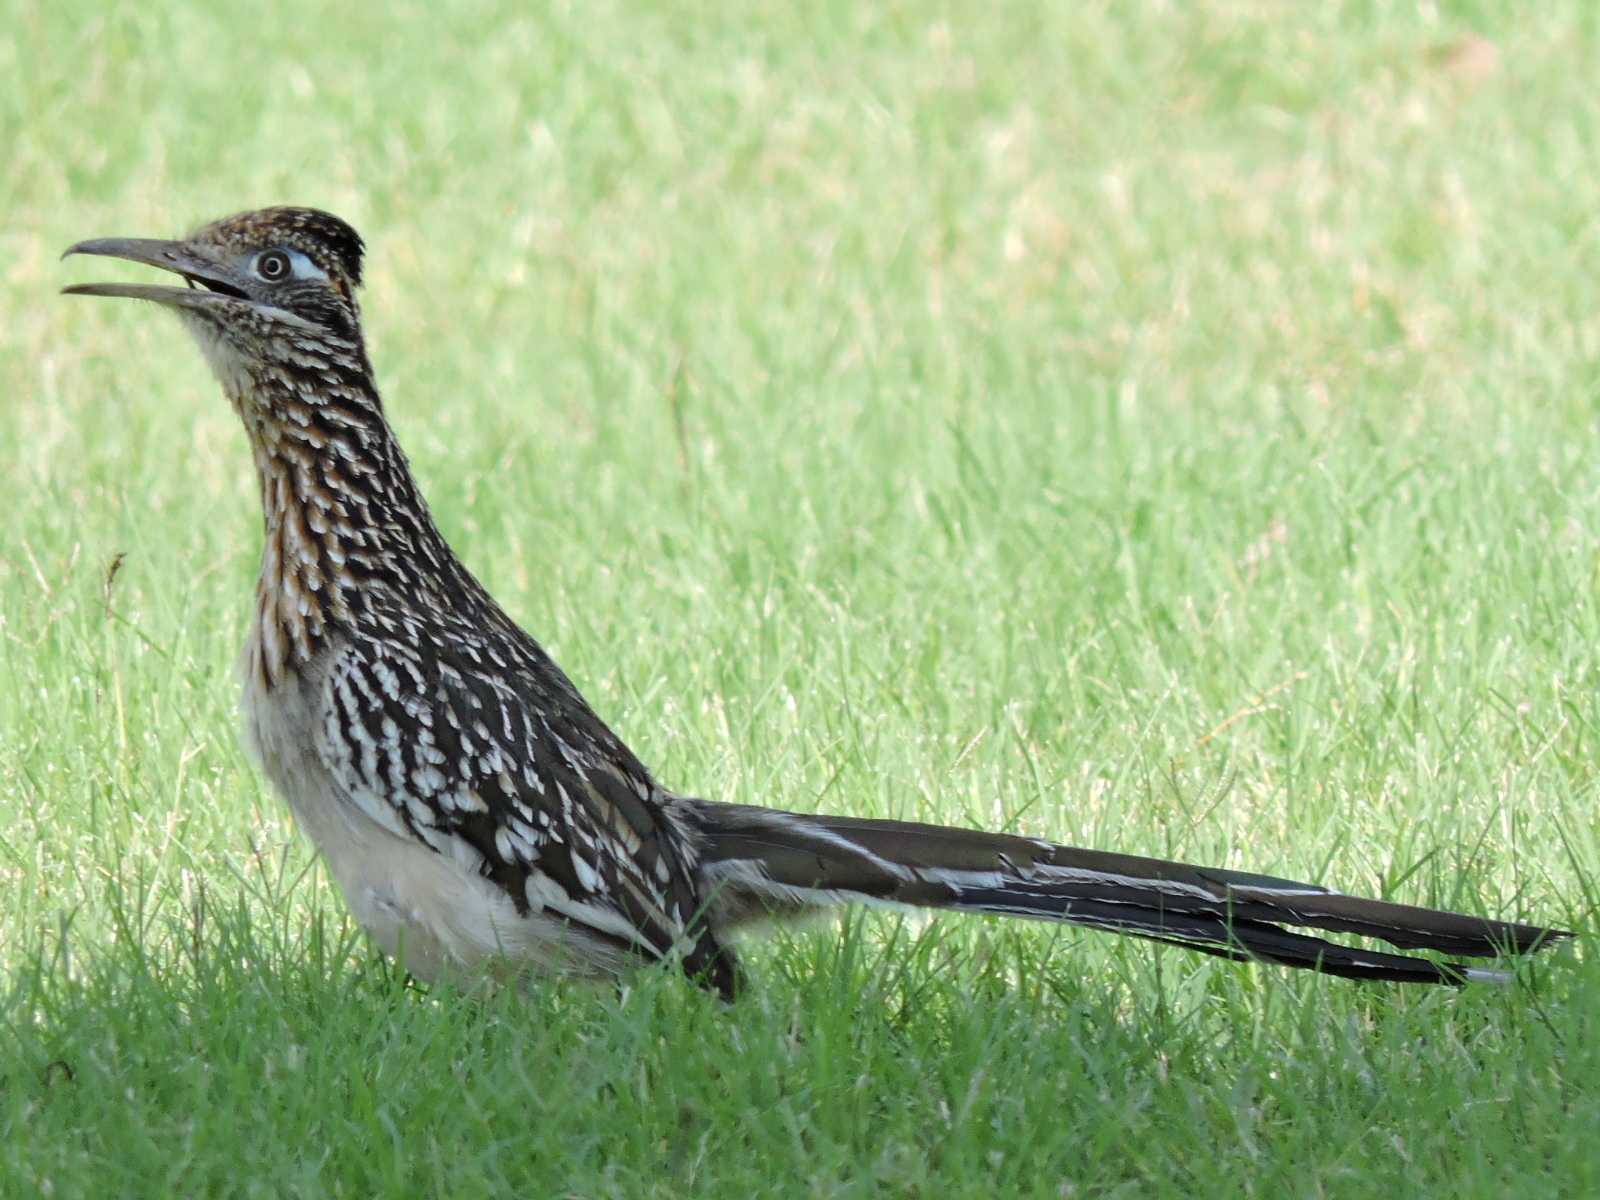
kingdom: Animalia
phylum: Chordata
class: Aves
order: Cuculiformes
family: Cuculidae
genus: Geococcyx
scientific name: Geococcyx californianus
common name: Greater roadrunner
